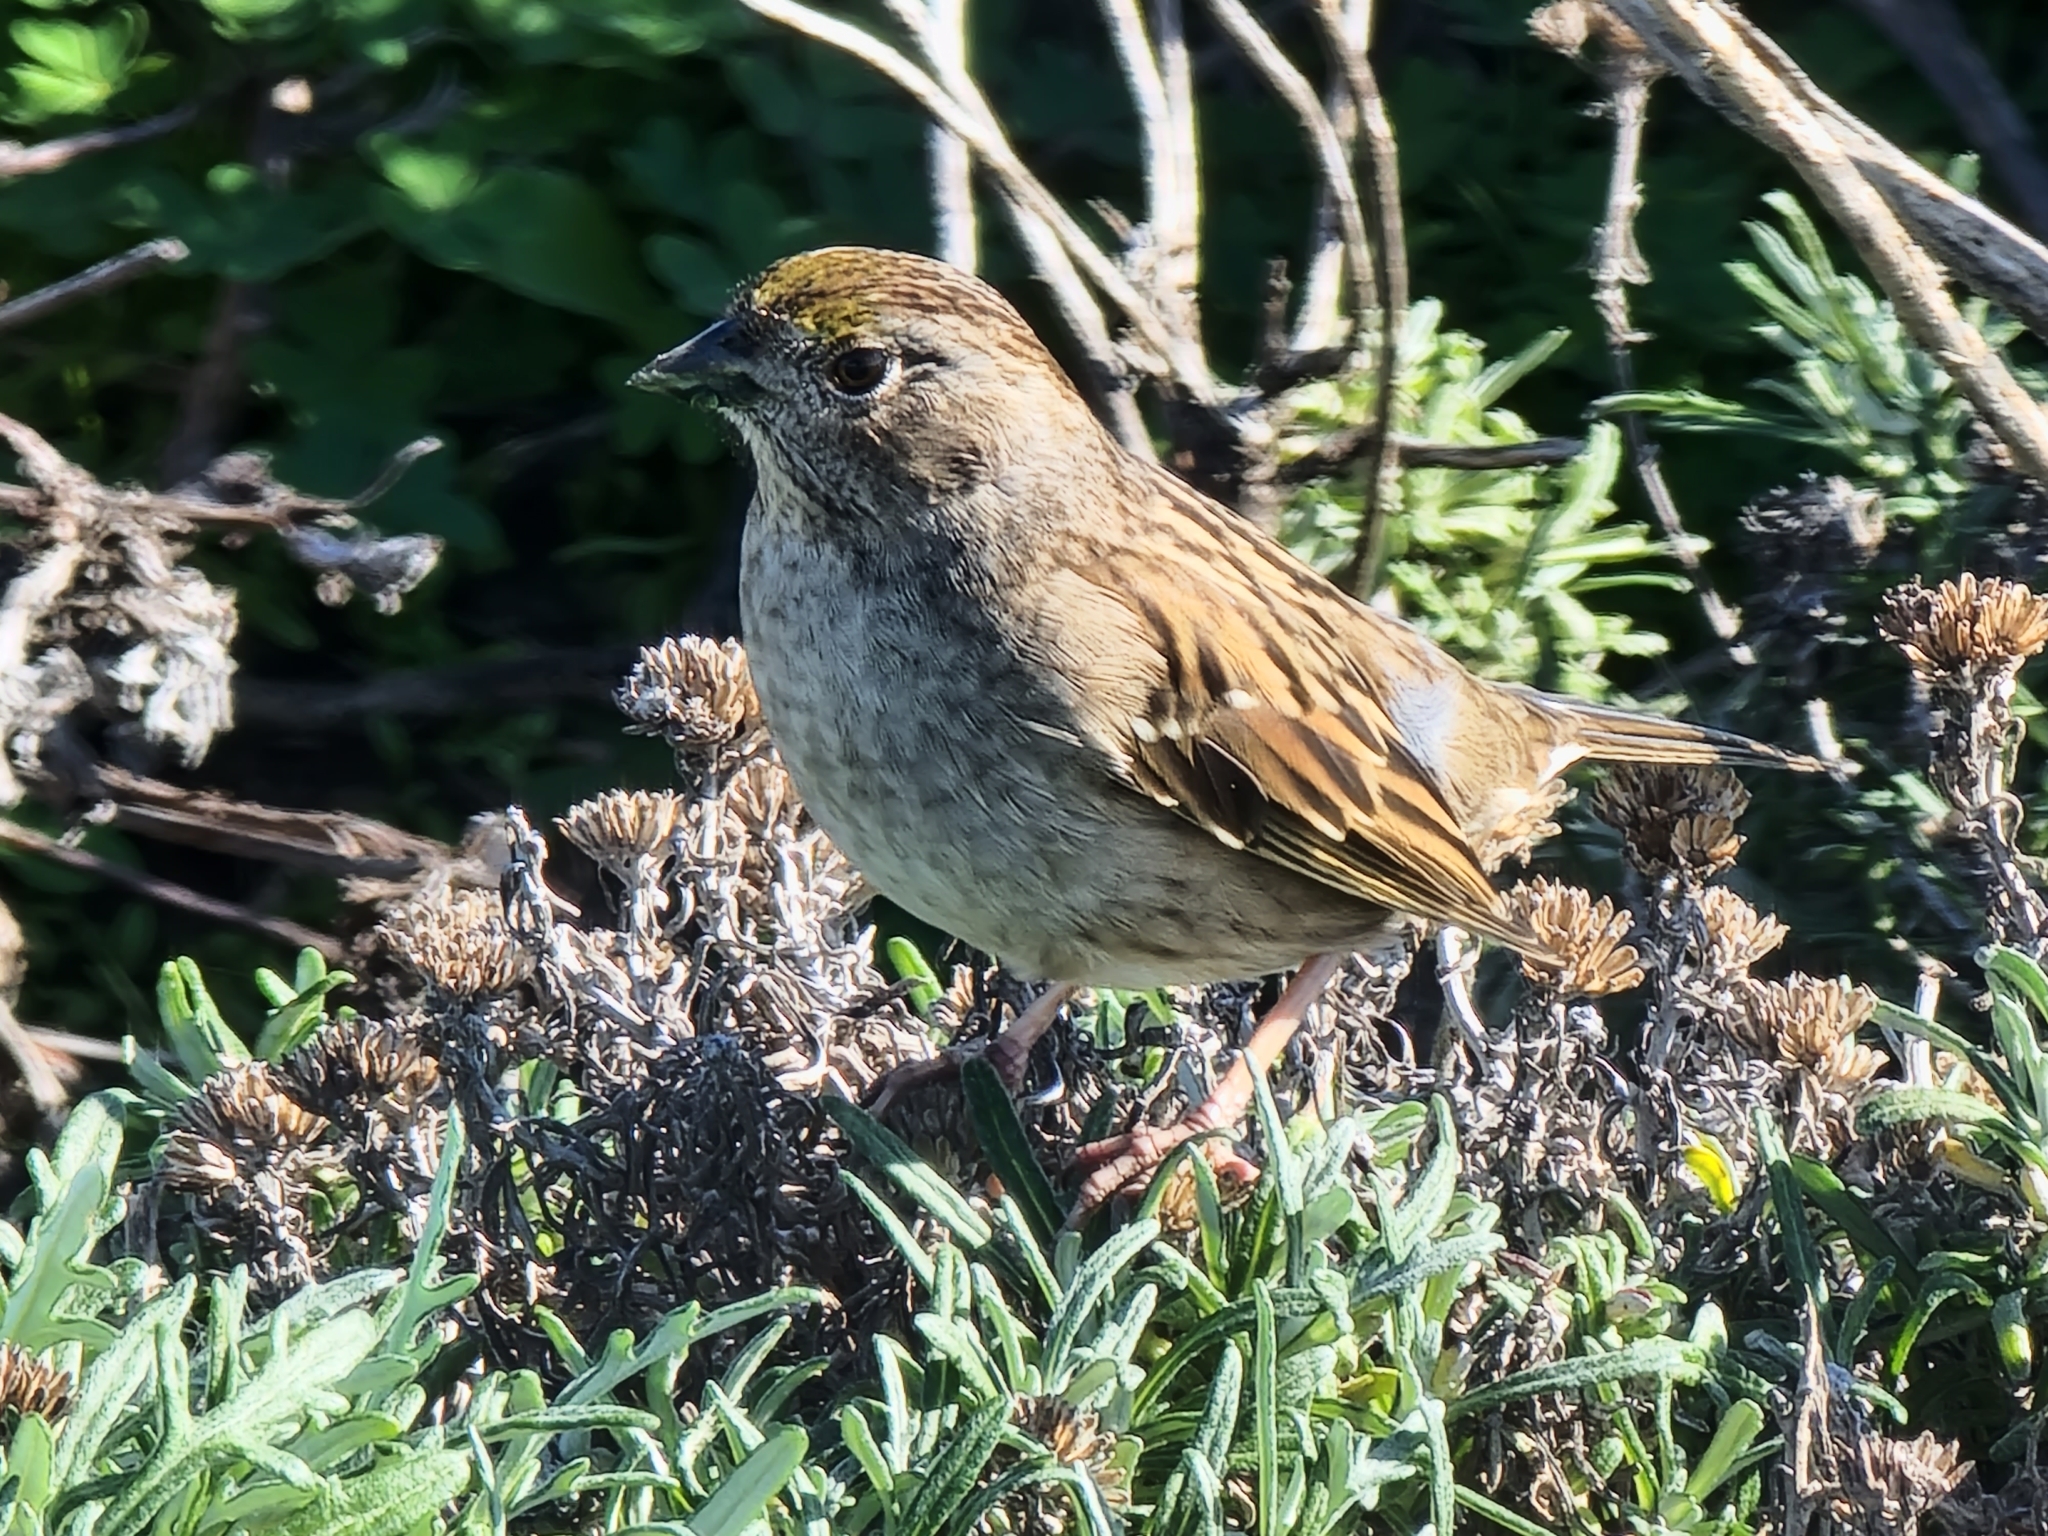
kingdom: Animalia
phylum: Chordata
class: Aves
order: Passeriformes
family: Passerellidae
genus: Zonotrichia
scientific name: Zonotrichia atricapilla
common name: Golden-crowned sparrow
